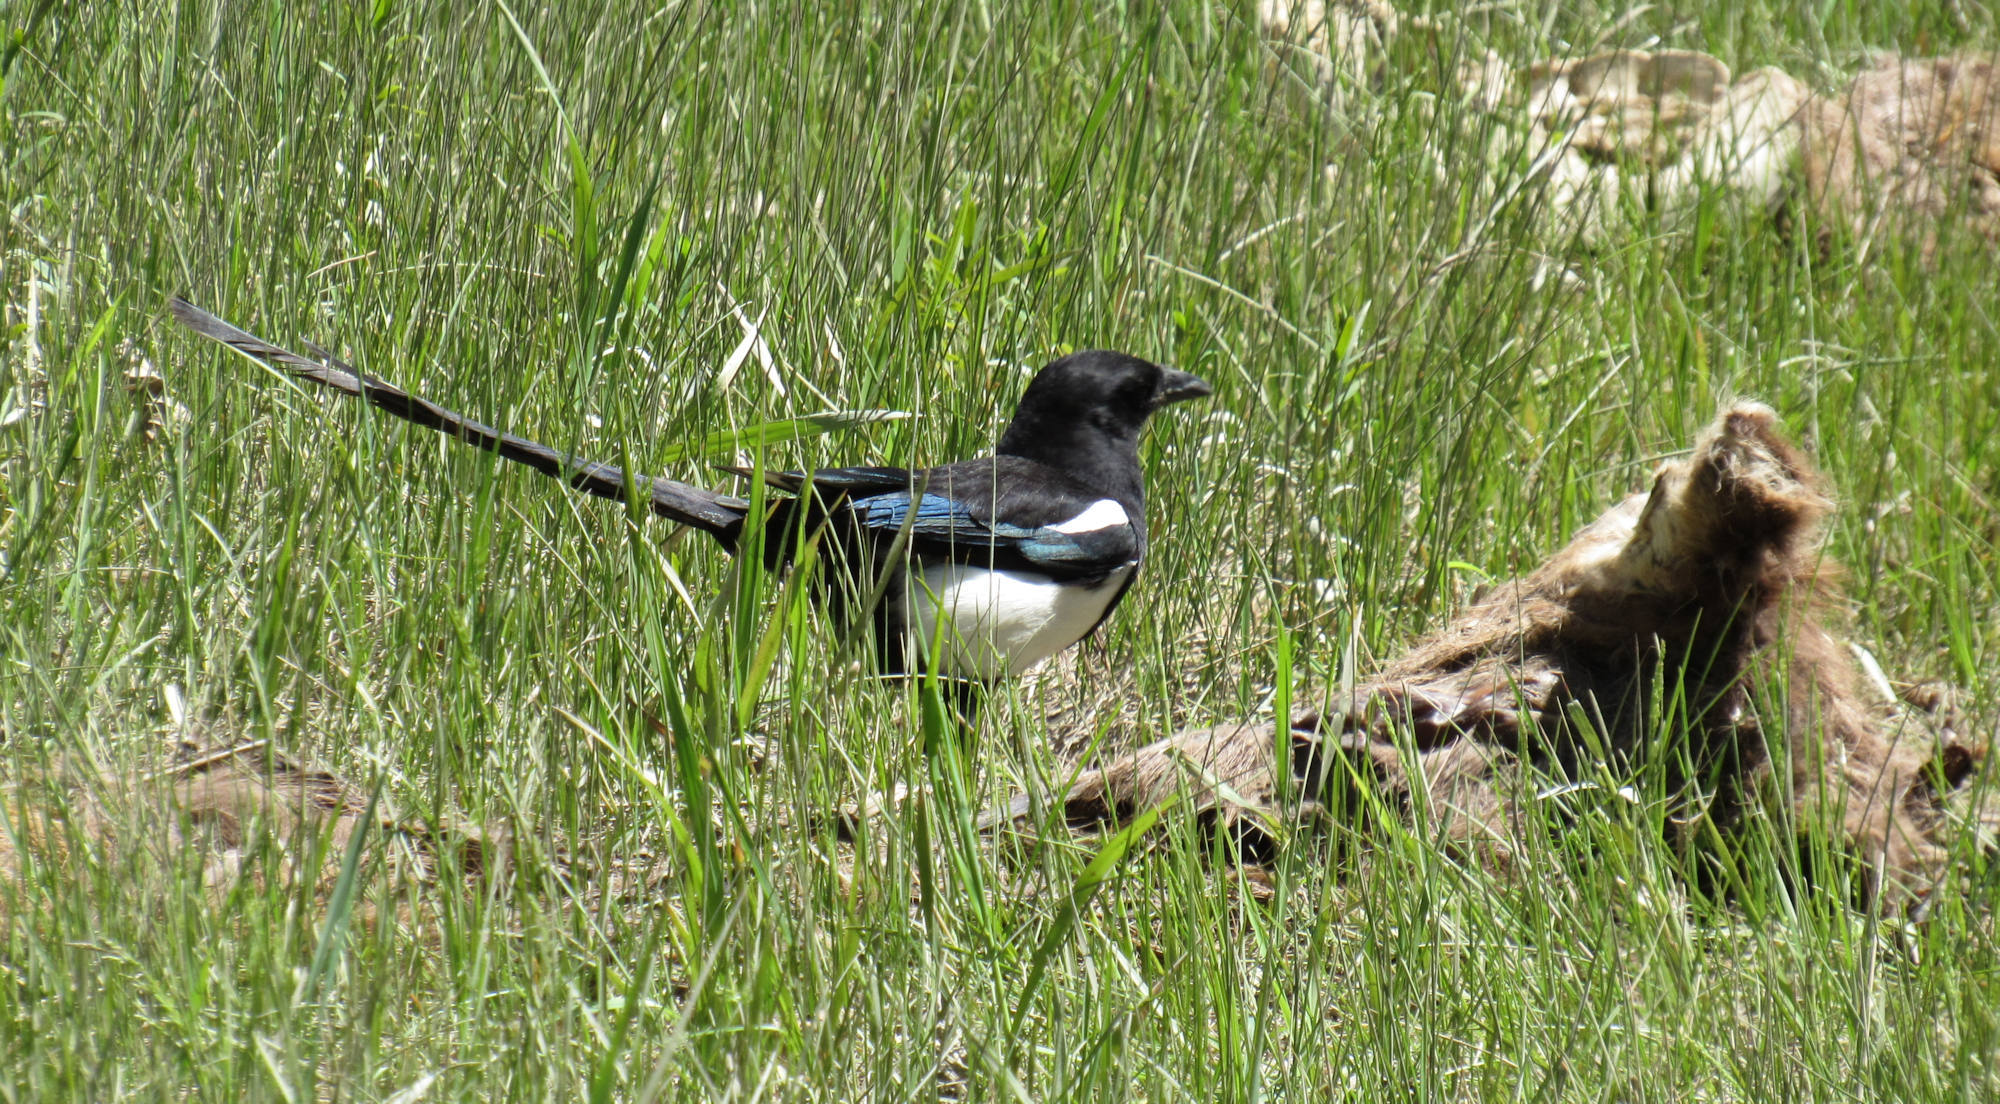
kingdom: Animalia
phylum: Chordata
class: Aves
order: Passeriformes
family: Corvidae
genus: Pica
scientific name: Pica hudsonia
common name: Black-billed magpie
